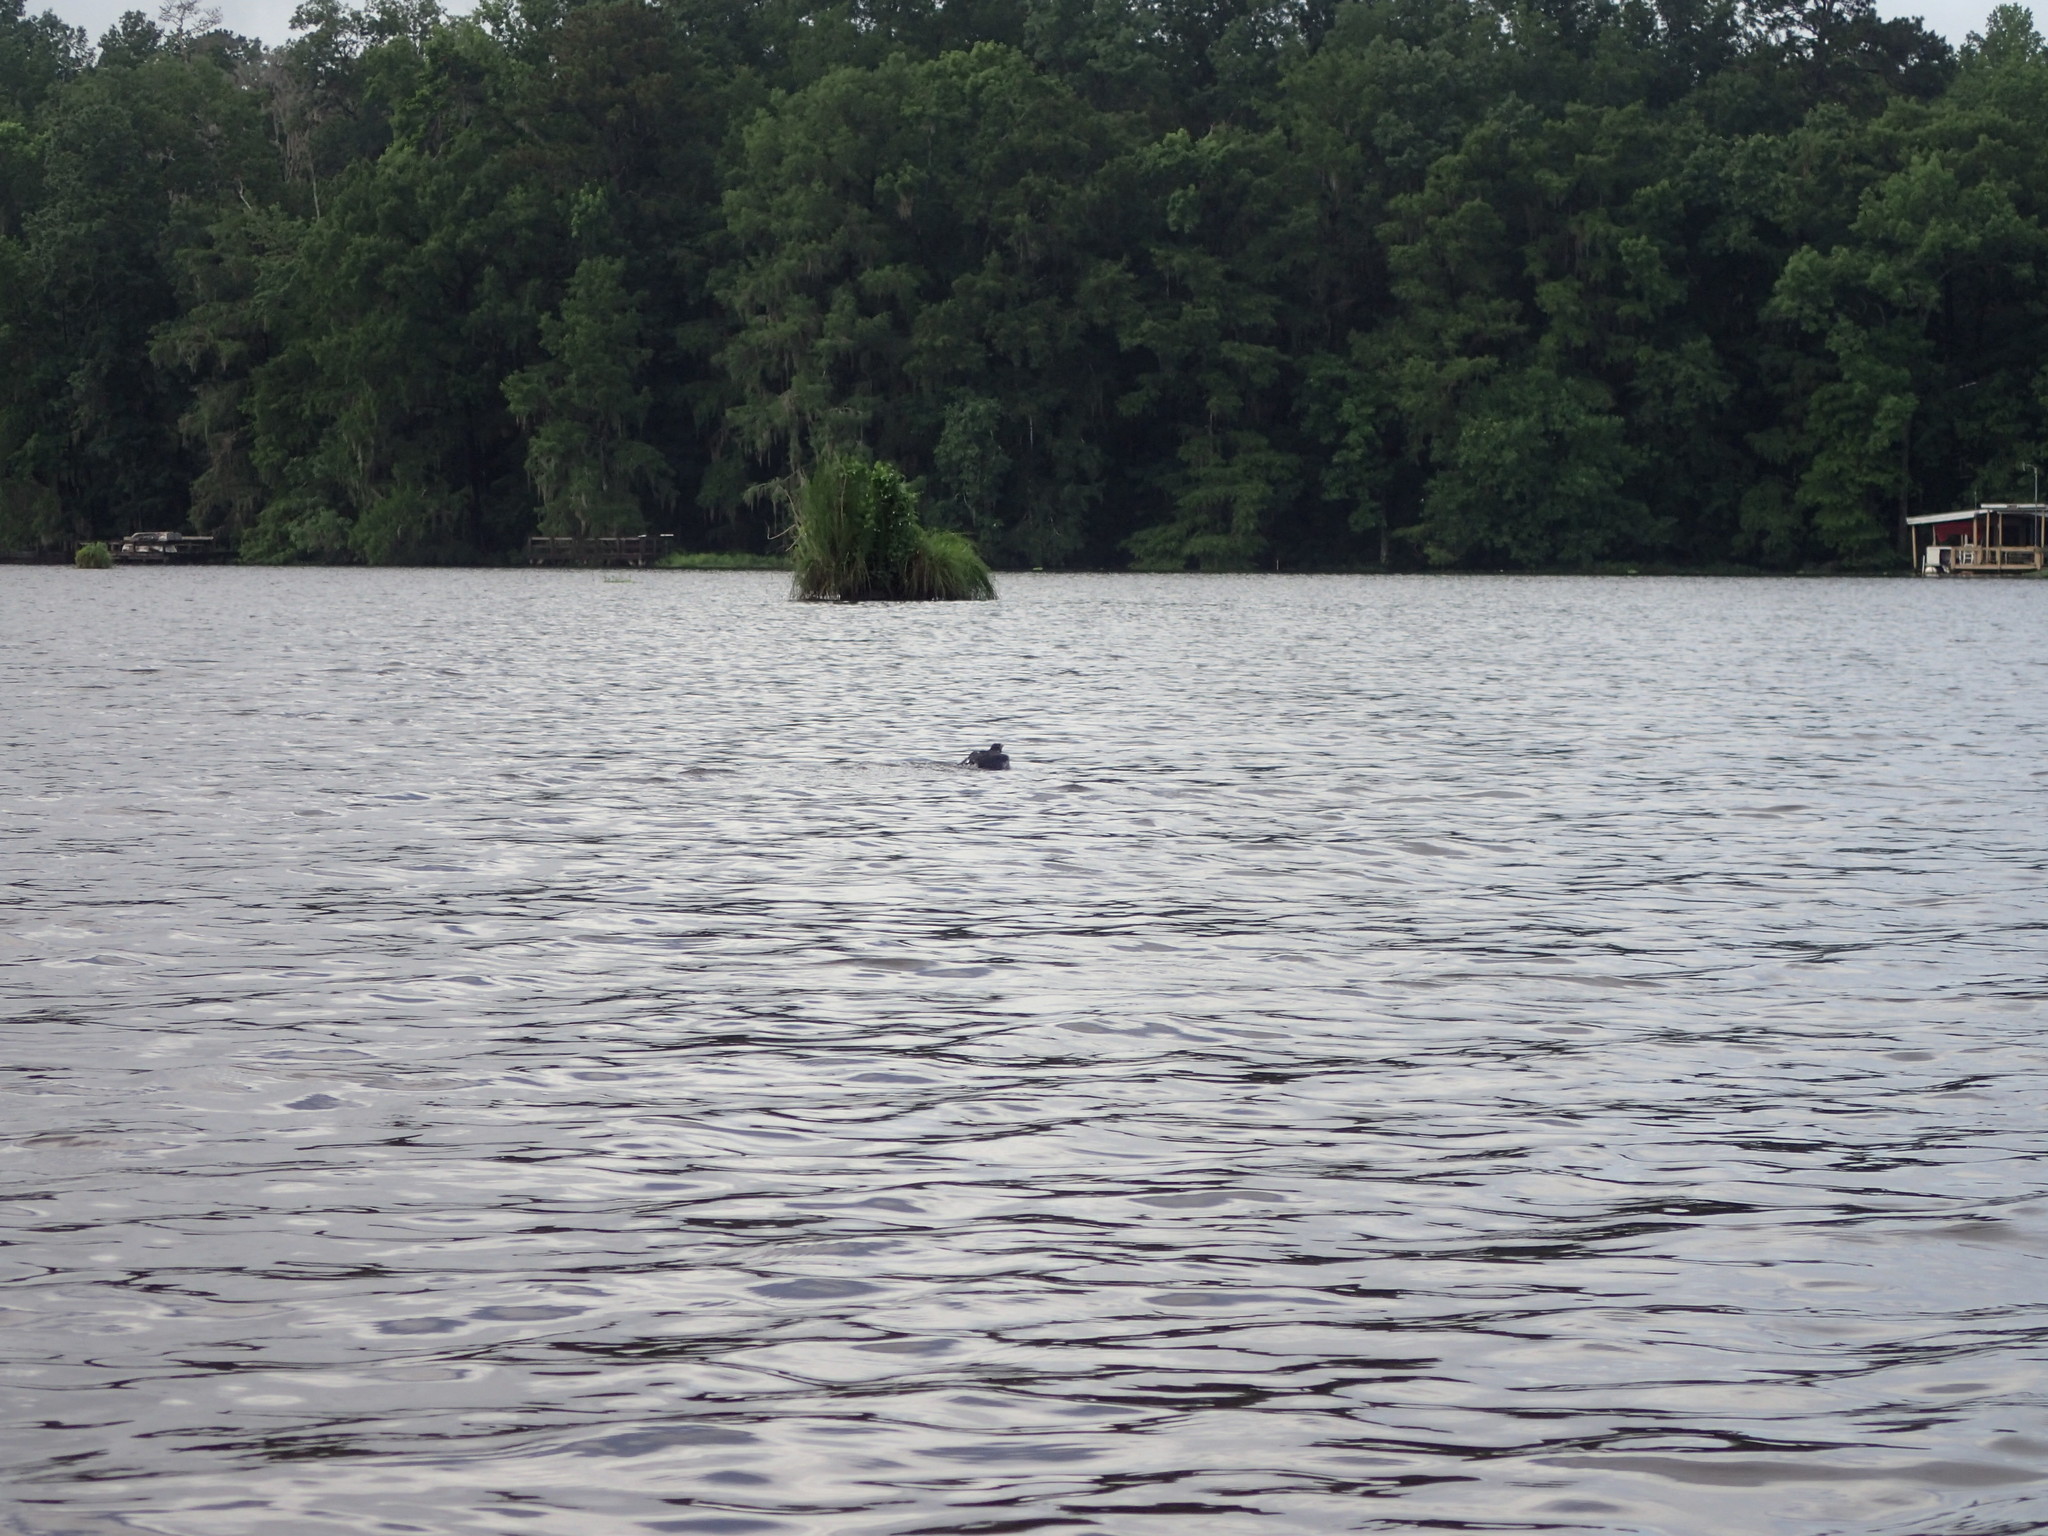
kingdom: Animalia
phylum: Chordata
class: Aves
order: Passeriformes
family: Icteridae
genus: Quiscalus
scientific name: Quiscalus quiscula
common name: Common grackle
